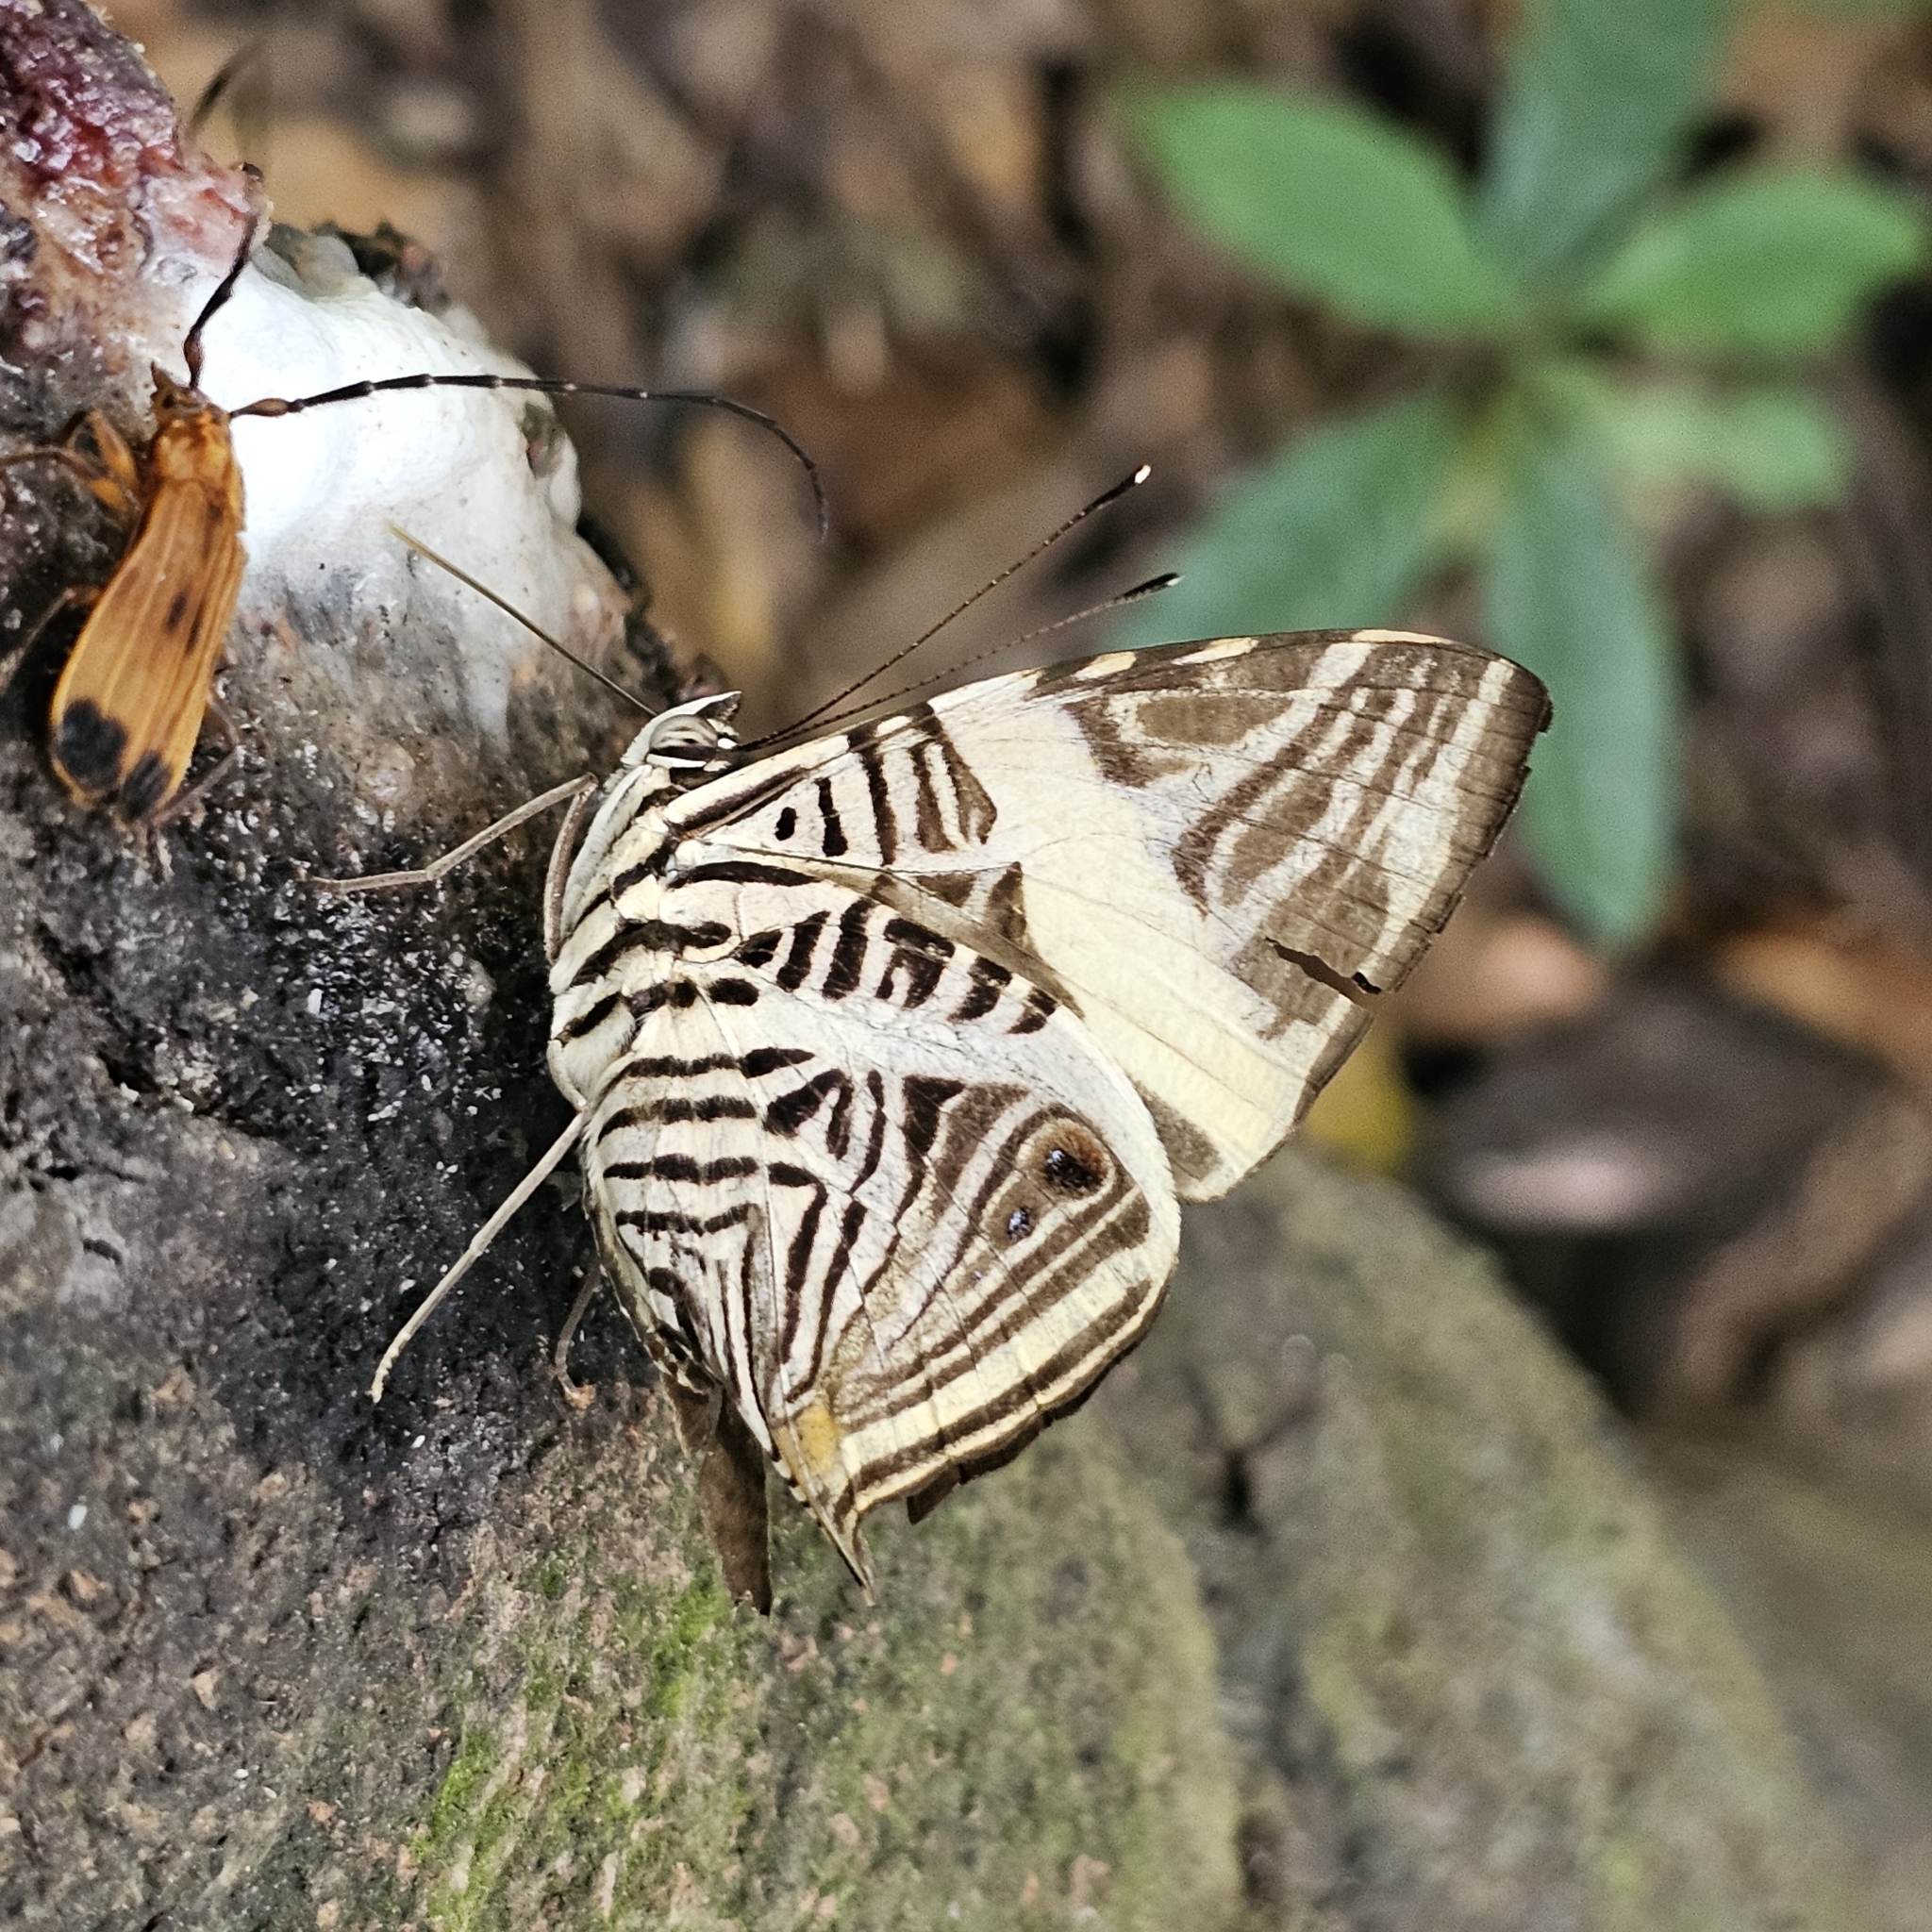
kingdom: Animalia
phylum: Arthropoda
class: Insecta
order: Lepidoptera
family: Nymphalidae
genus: Colobura
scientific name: Colobura dirce
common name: Dirce beauty
